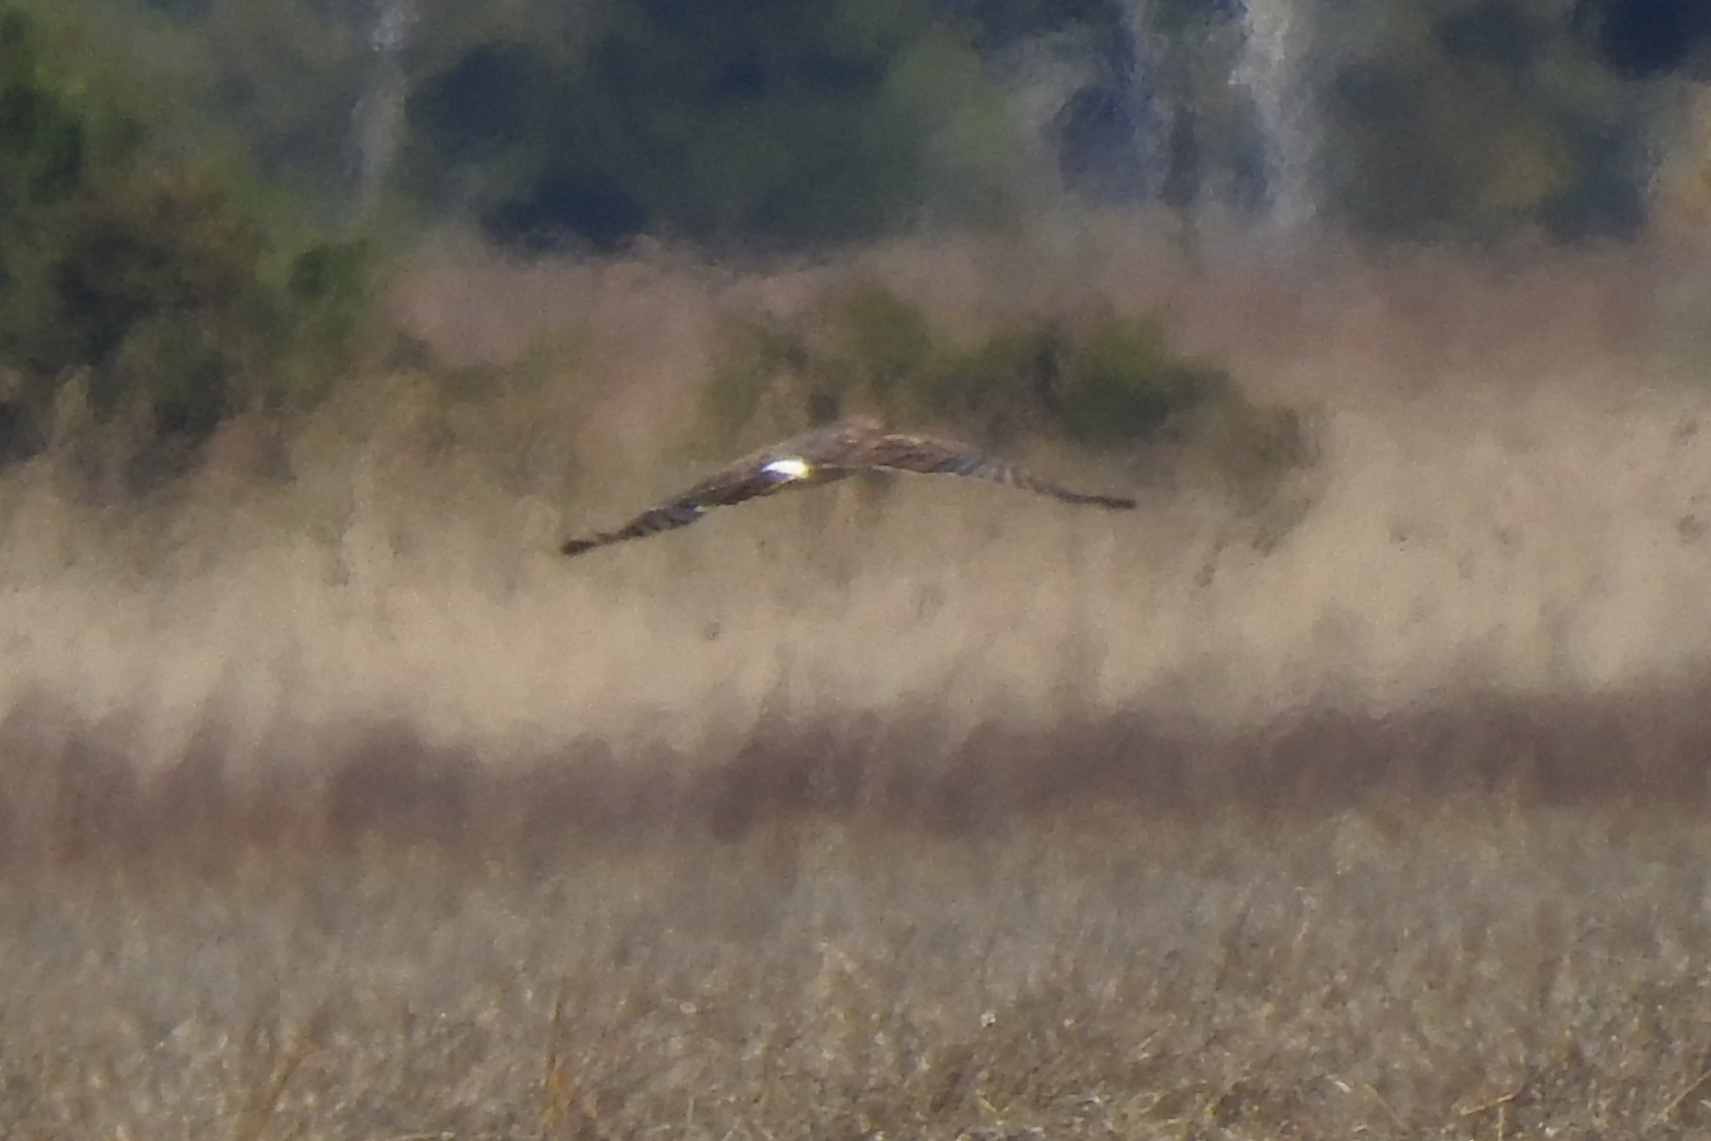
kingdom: Animalia
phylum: Chordata
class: Aves
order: Accipitriformes
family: Accipitridae
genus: Circus
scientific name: Circus cyaneus
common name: Hen harrier
